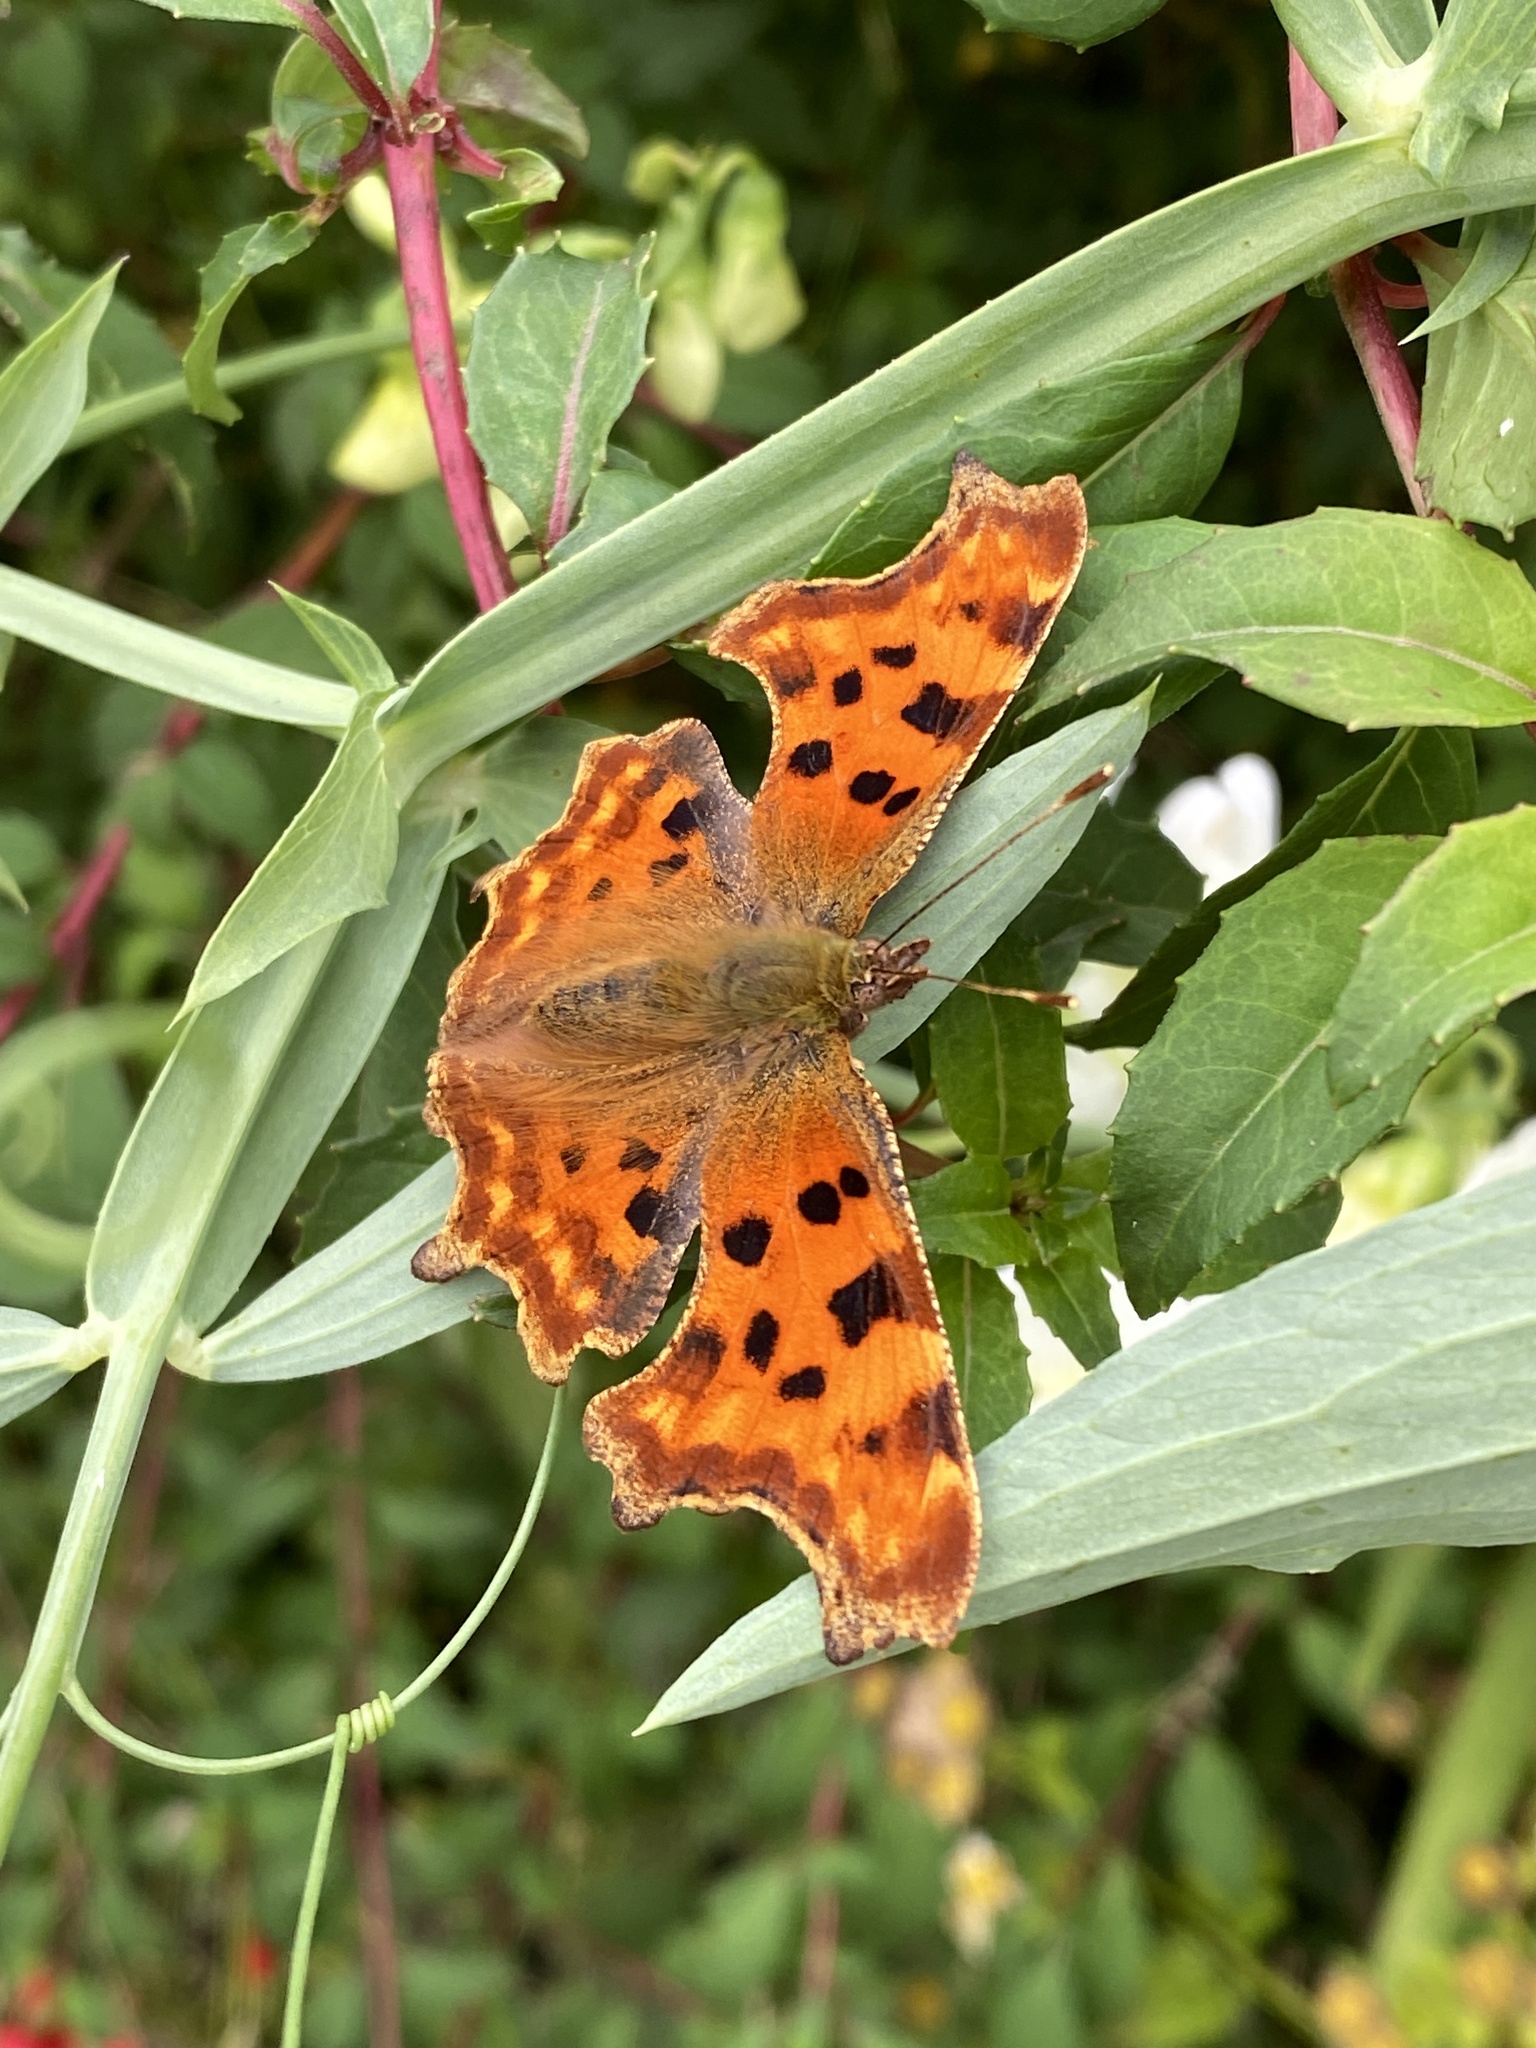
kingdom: Animalia
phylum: Arthropoda
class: Insecta
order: Lepidoptera
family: Nymphalidae
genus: Polygonia
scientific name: Polygonia c-album
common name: Comma
